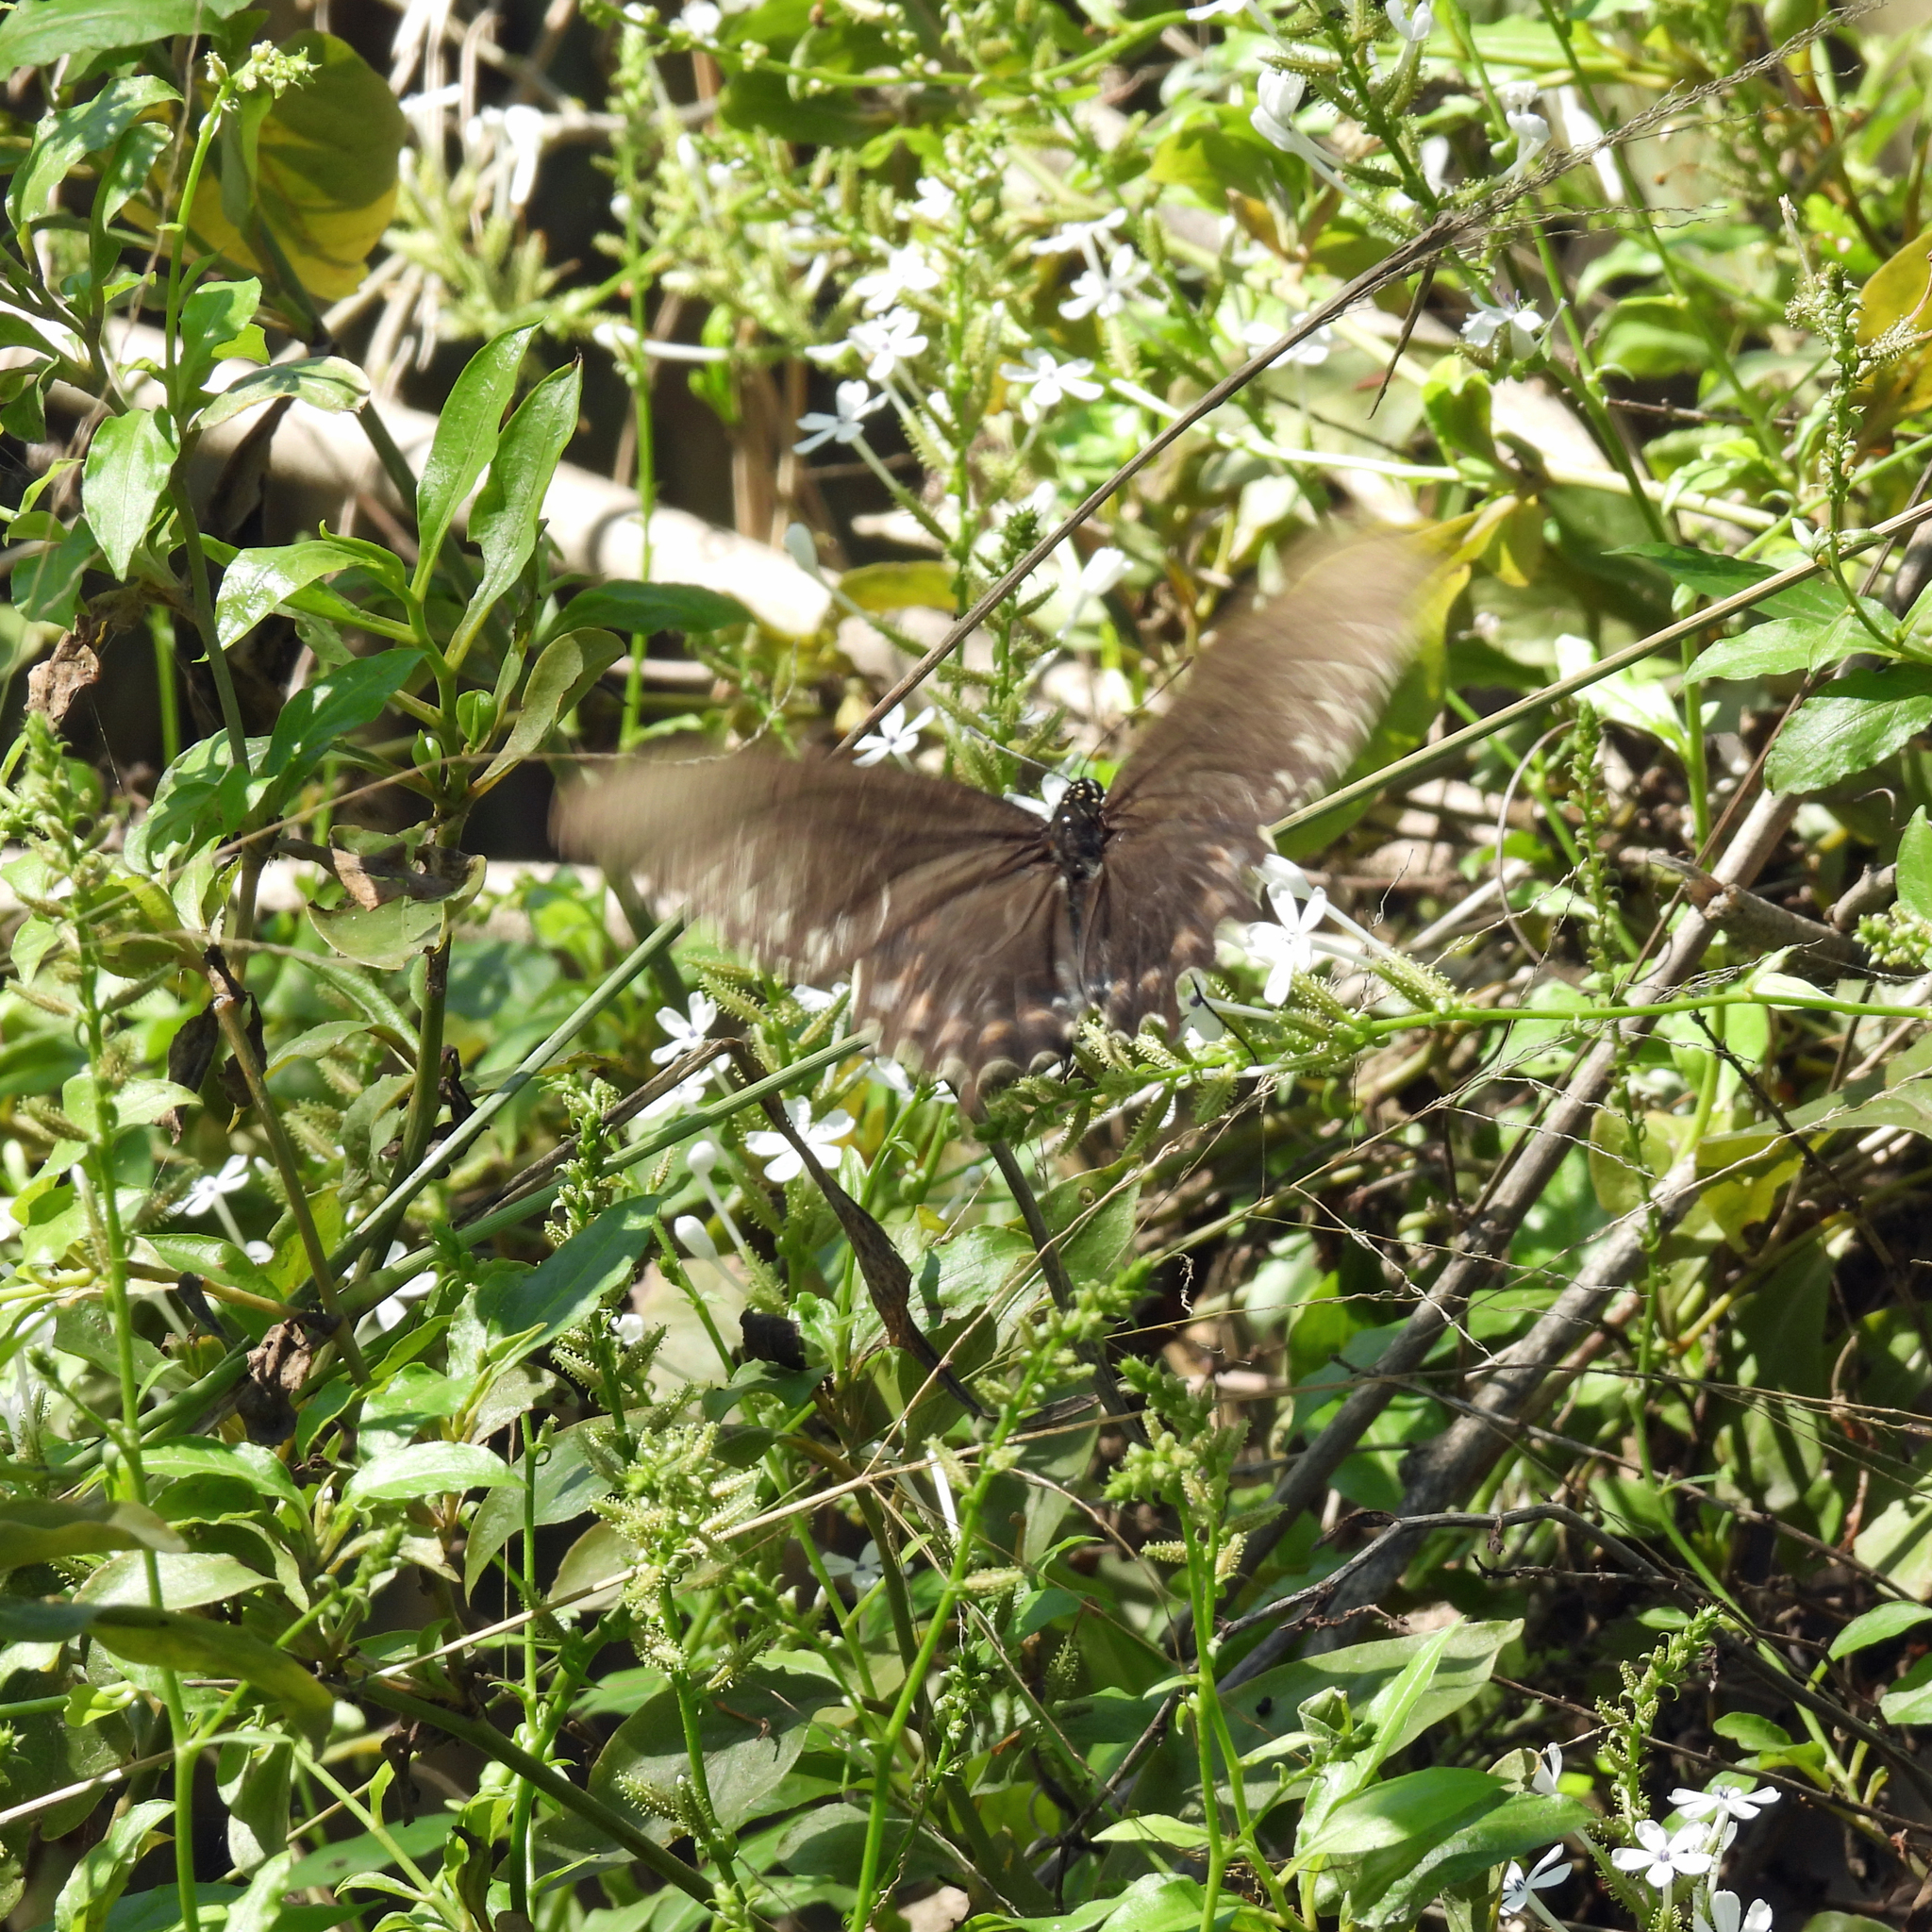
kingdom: Animalia
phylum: Arthropoda
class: Insecta
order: Lepidoptera
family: Papilionidae
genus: Battus
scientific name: Battus philenor
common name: Pipevine swallowtail
